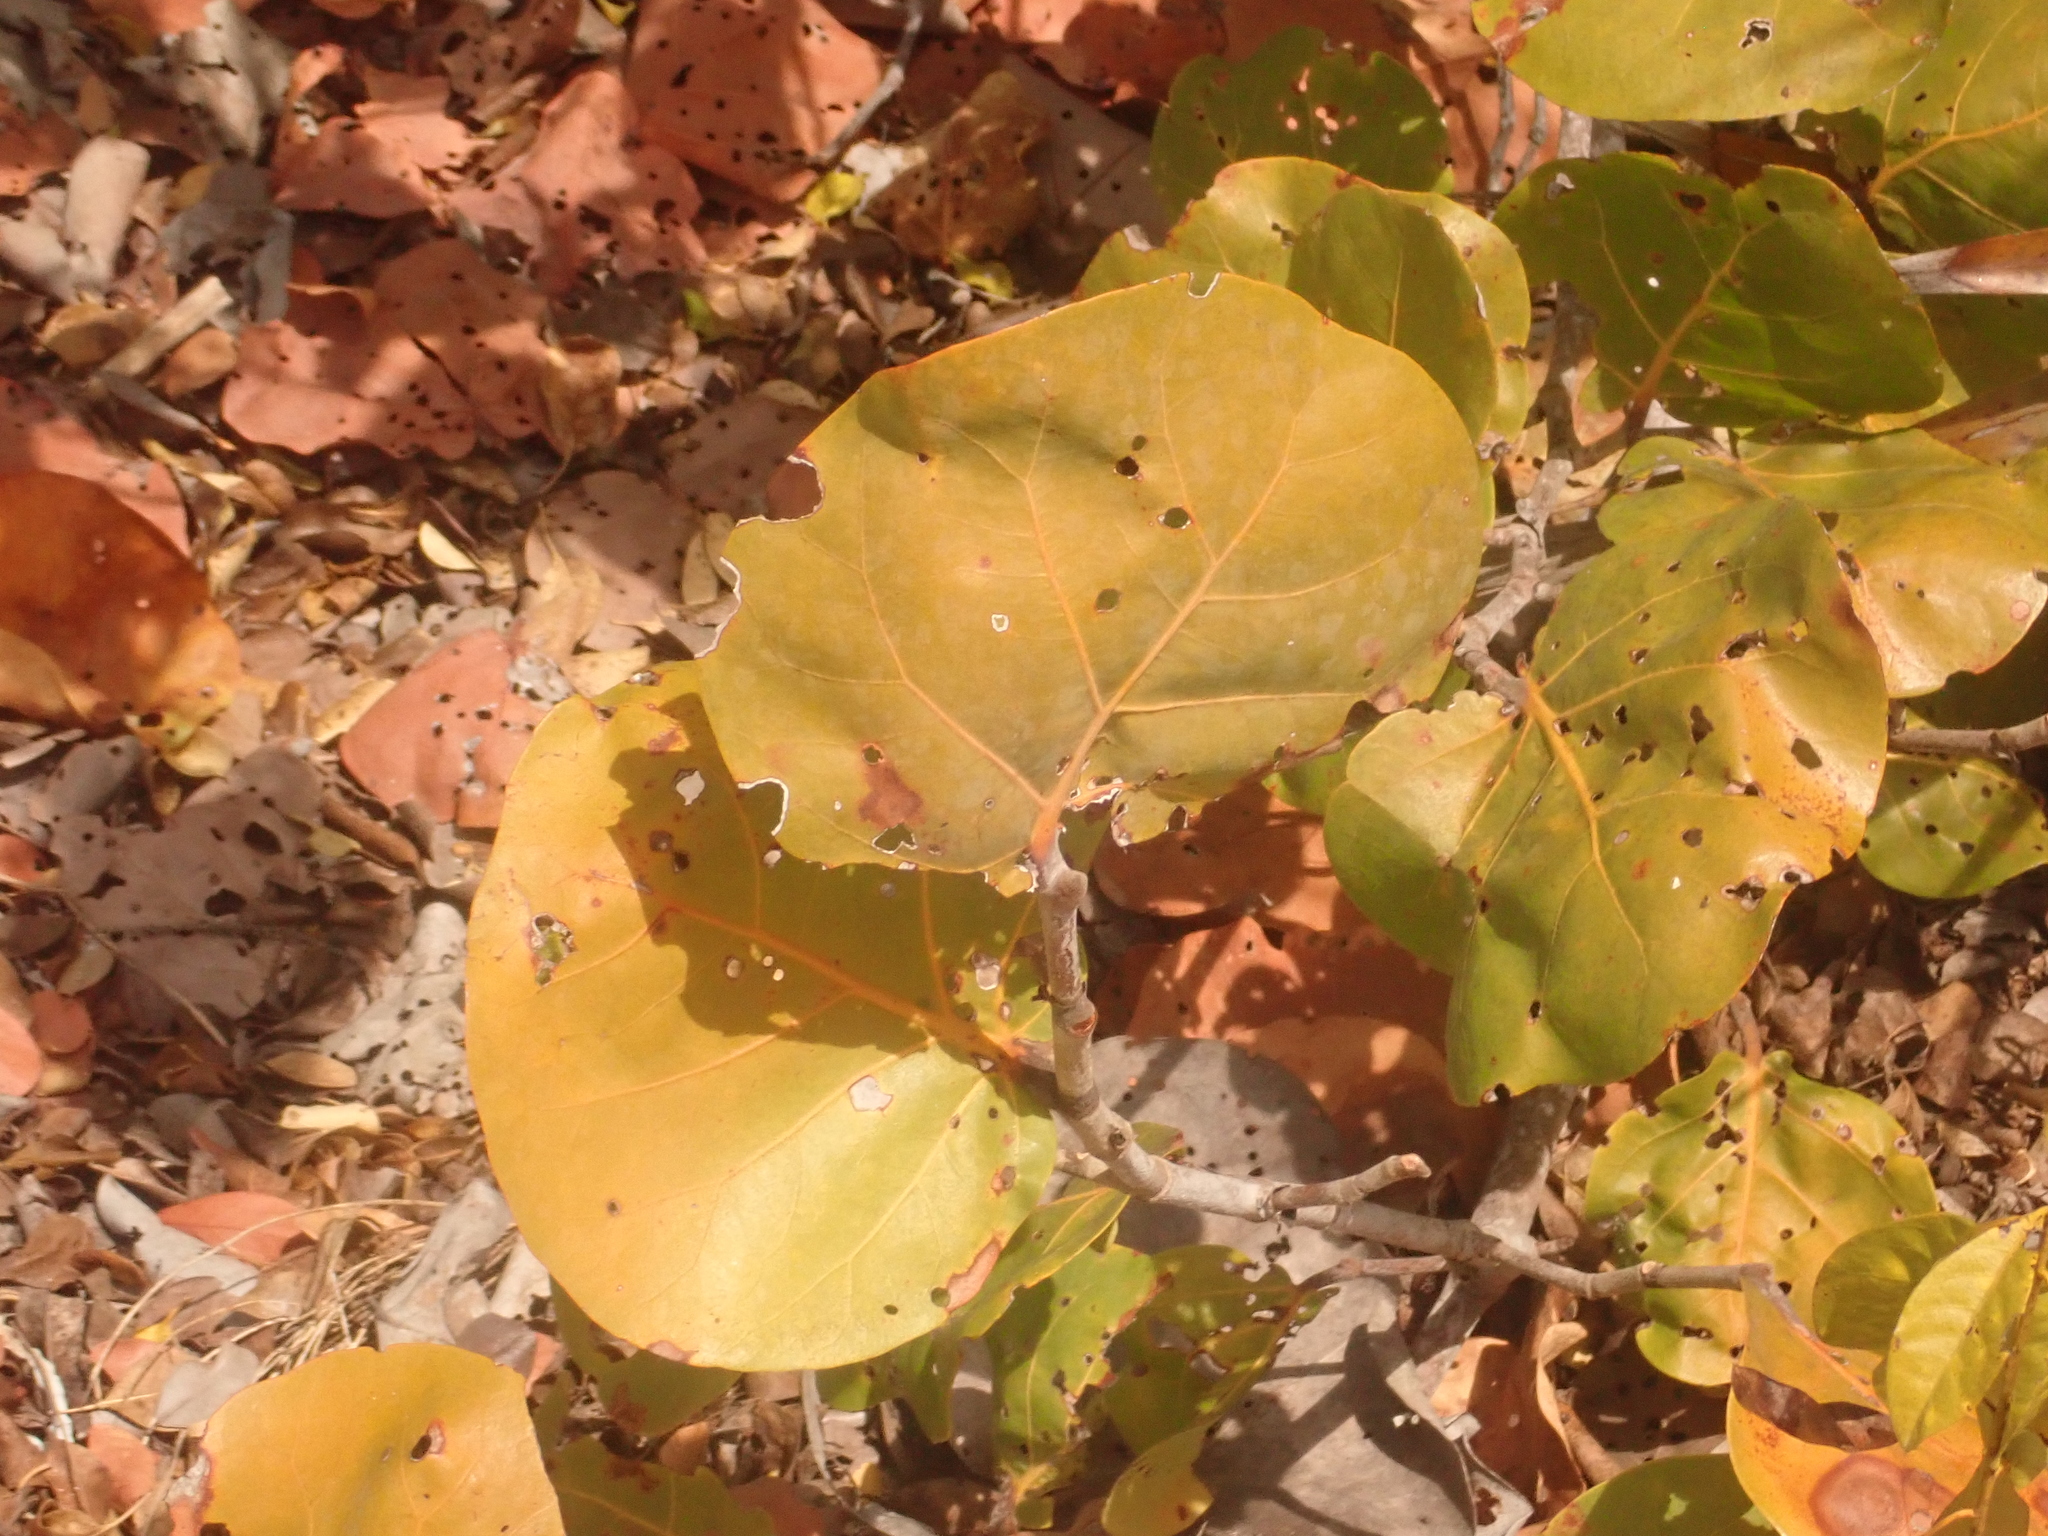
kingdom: Plantae
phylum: Tracheophyta
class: Magnoliopsida
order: Caryophyllales
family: Polygonaceae
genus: Coccoloba
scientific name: Coccoloba uvifera
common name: Seagrape
